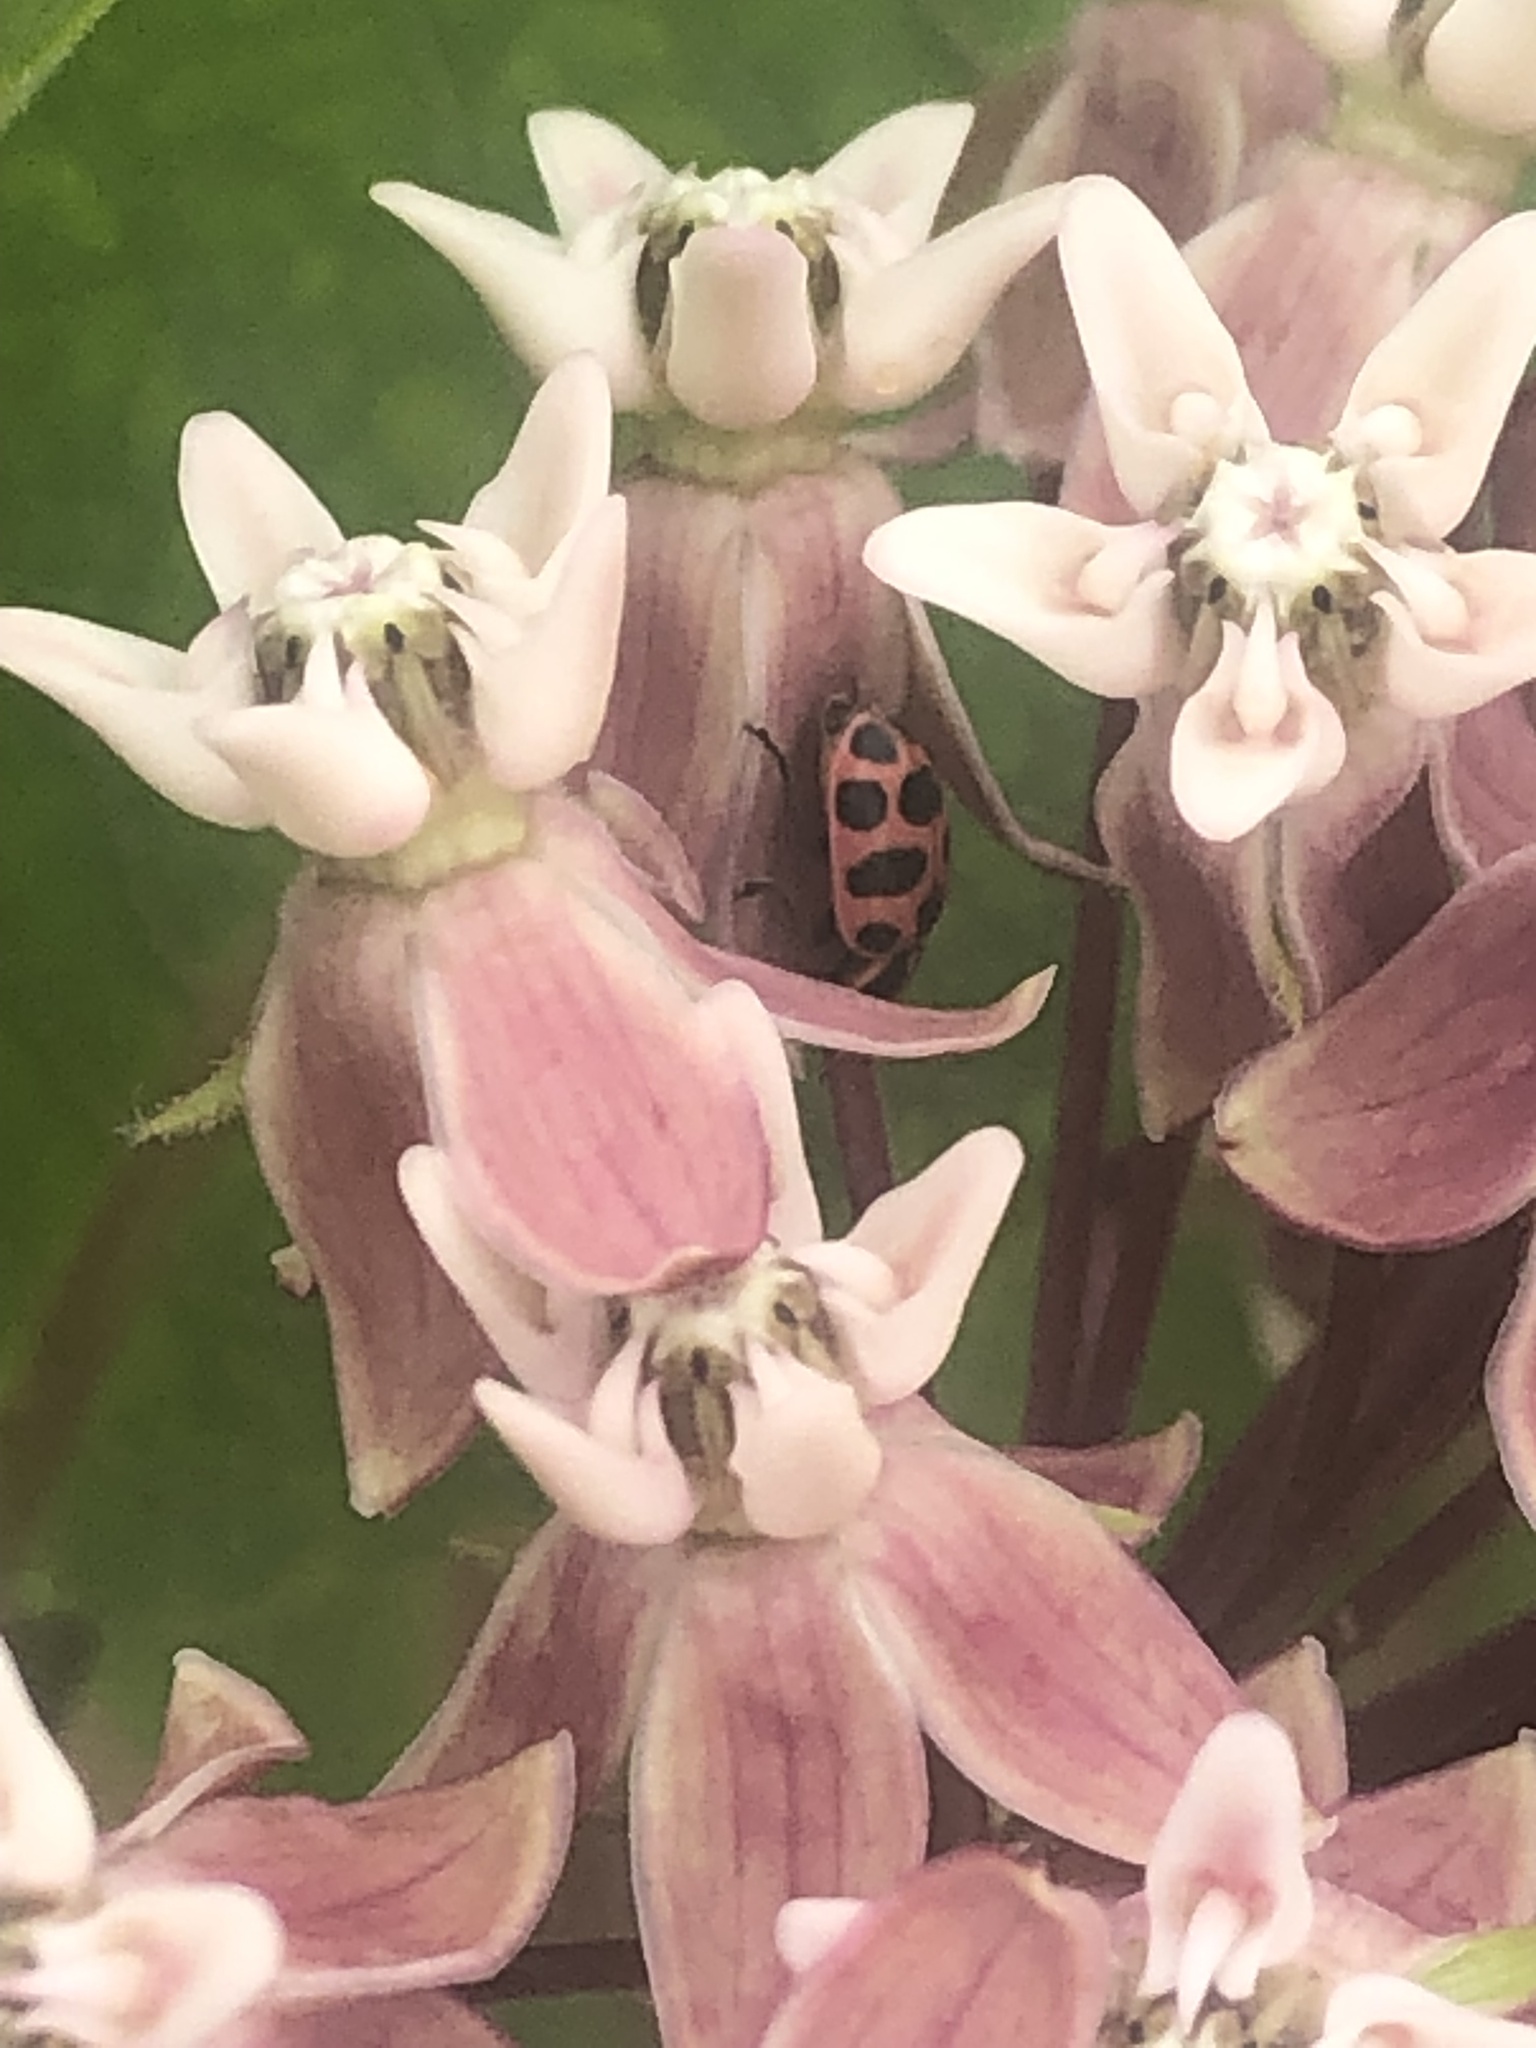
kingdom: Animalia
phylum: Arthropoda
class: Insecta
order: Coleoptera
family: Coccinellidae
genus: Coleomegilla
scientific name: Coleomegilla maculata
